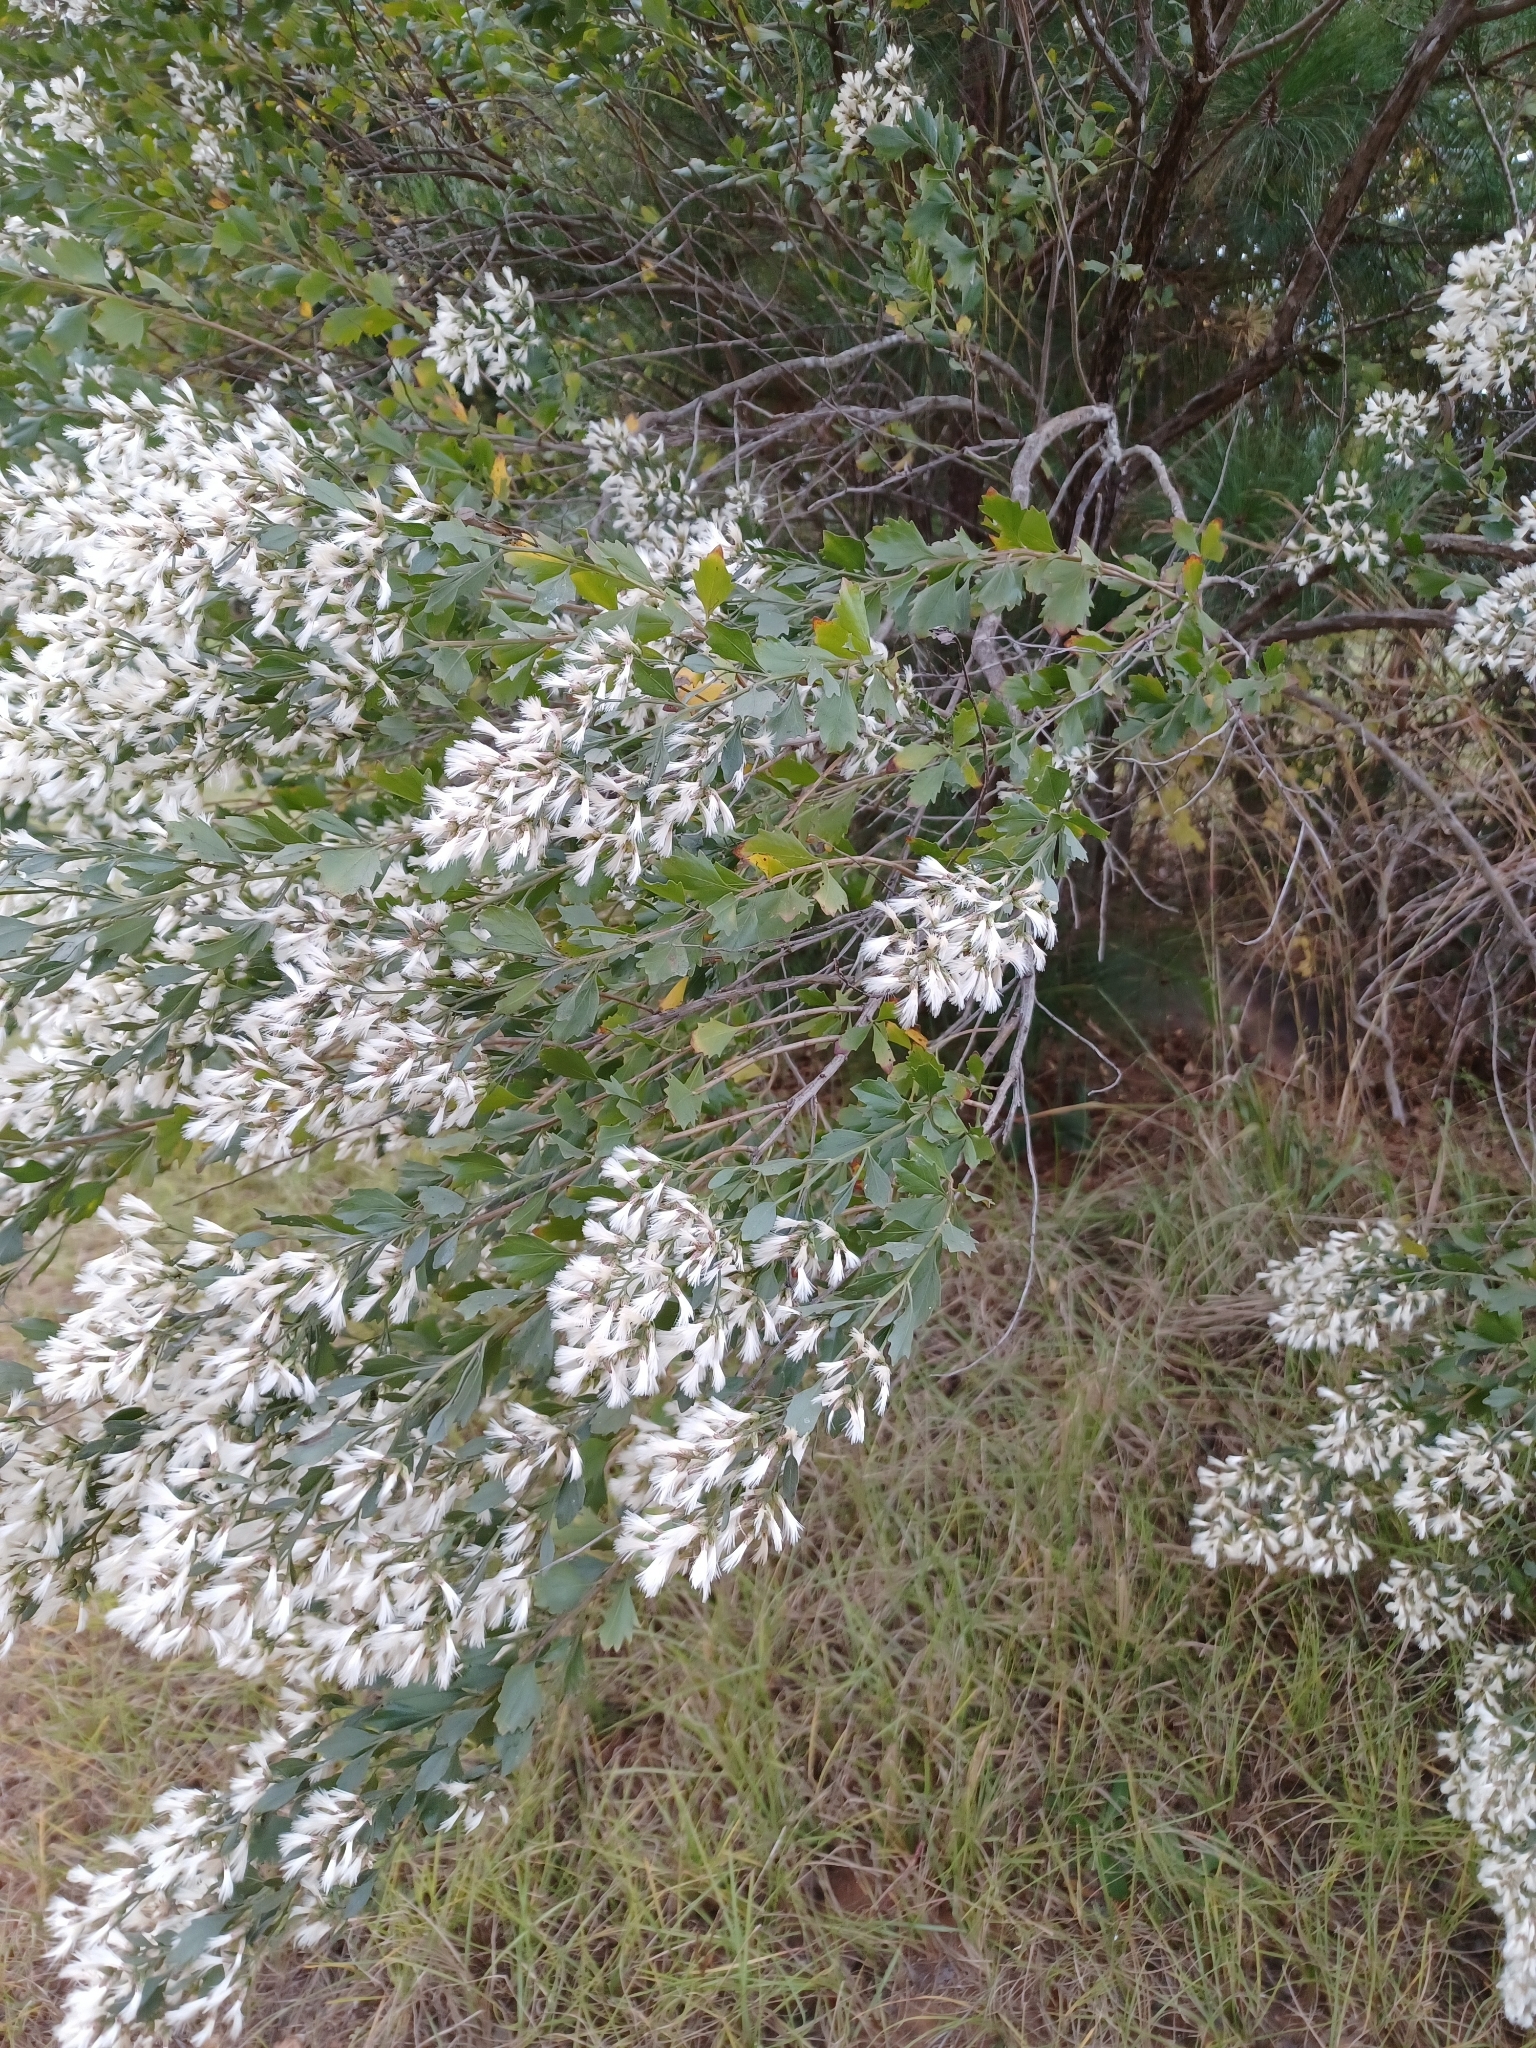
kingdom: Plantae
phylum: Tracheophyta
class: Magnoliopsida
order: Asterales
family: Asteraceae
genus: Baccharis
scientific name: Baccharis halimifolia
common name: Eastern baccharis
